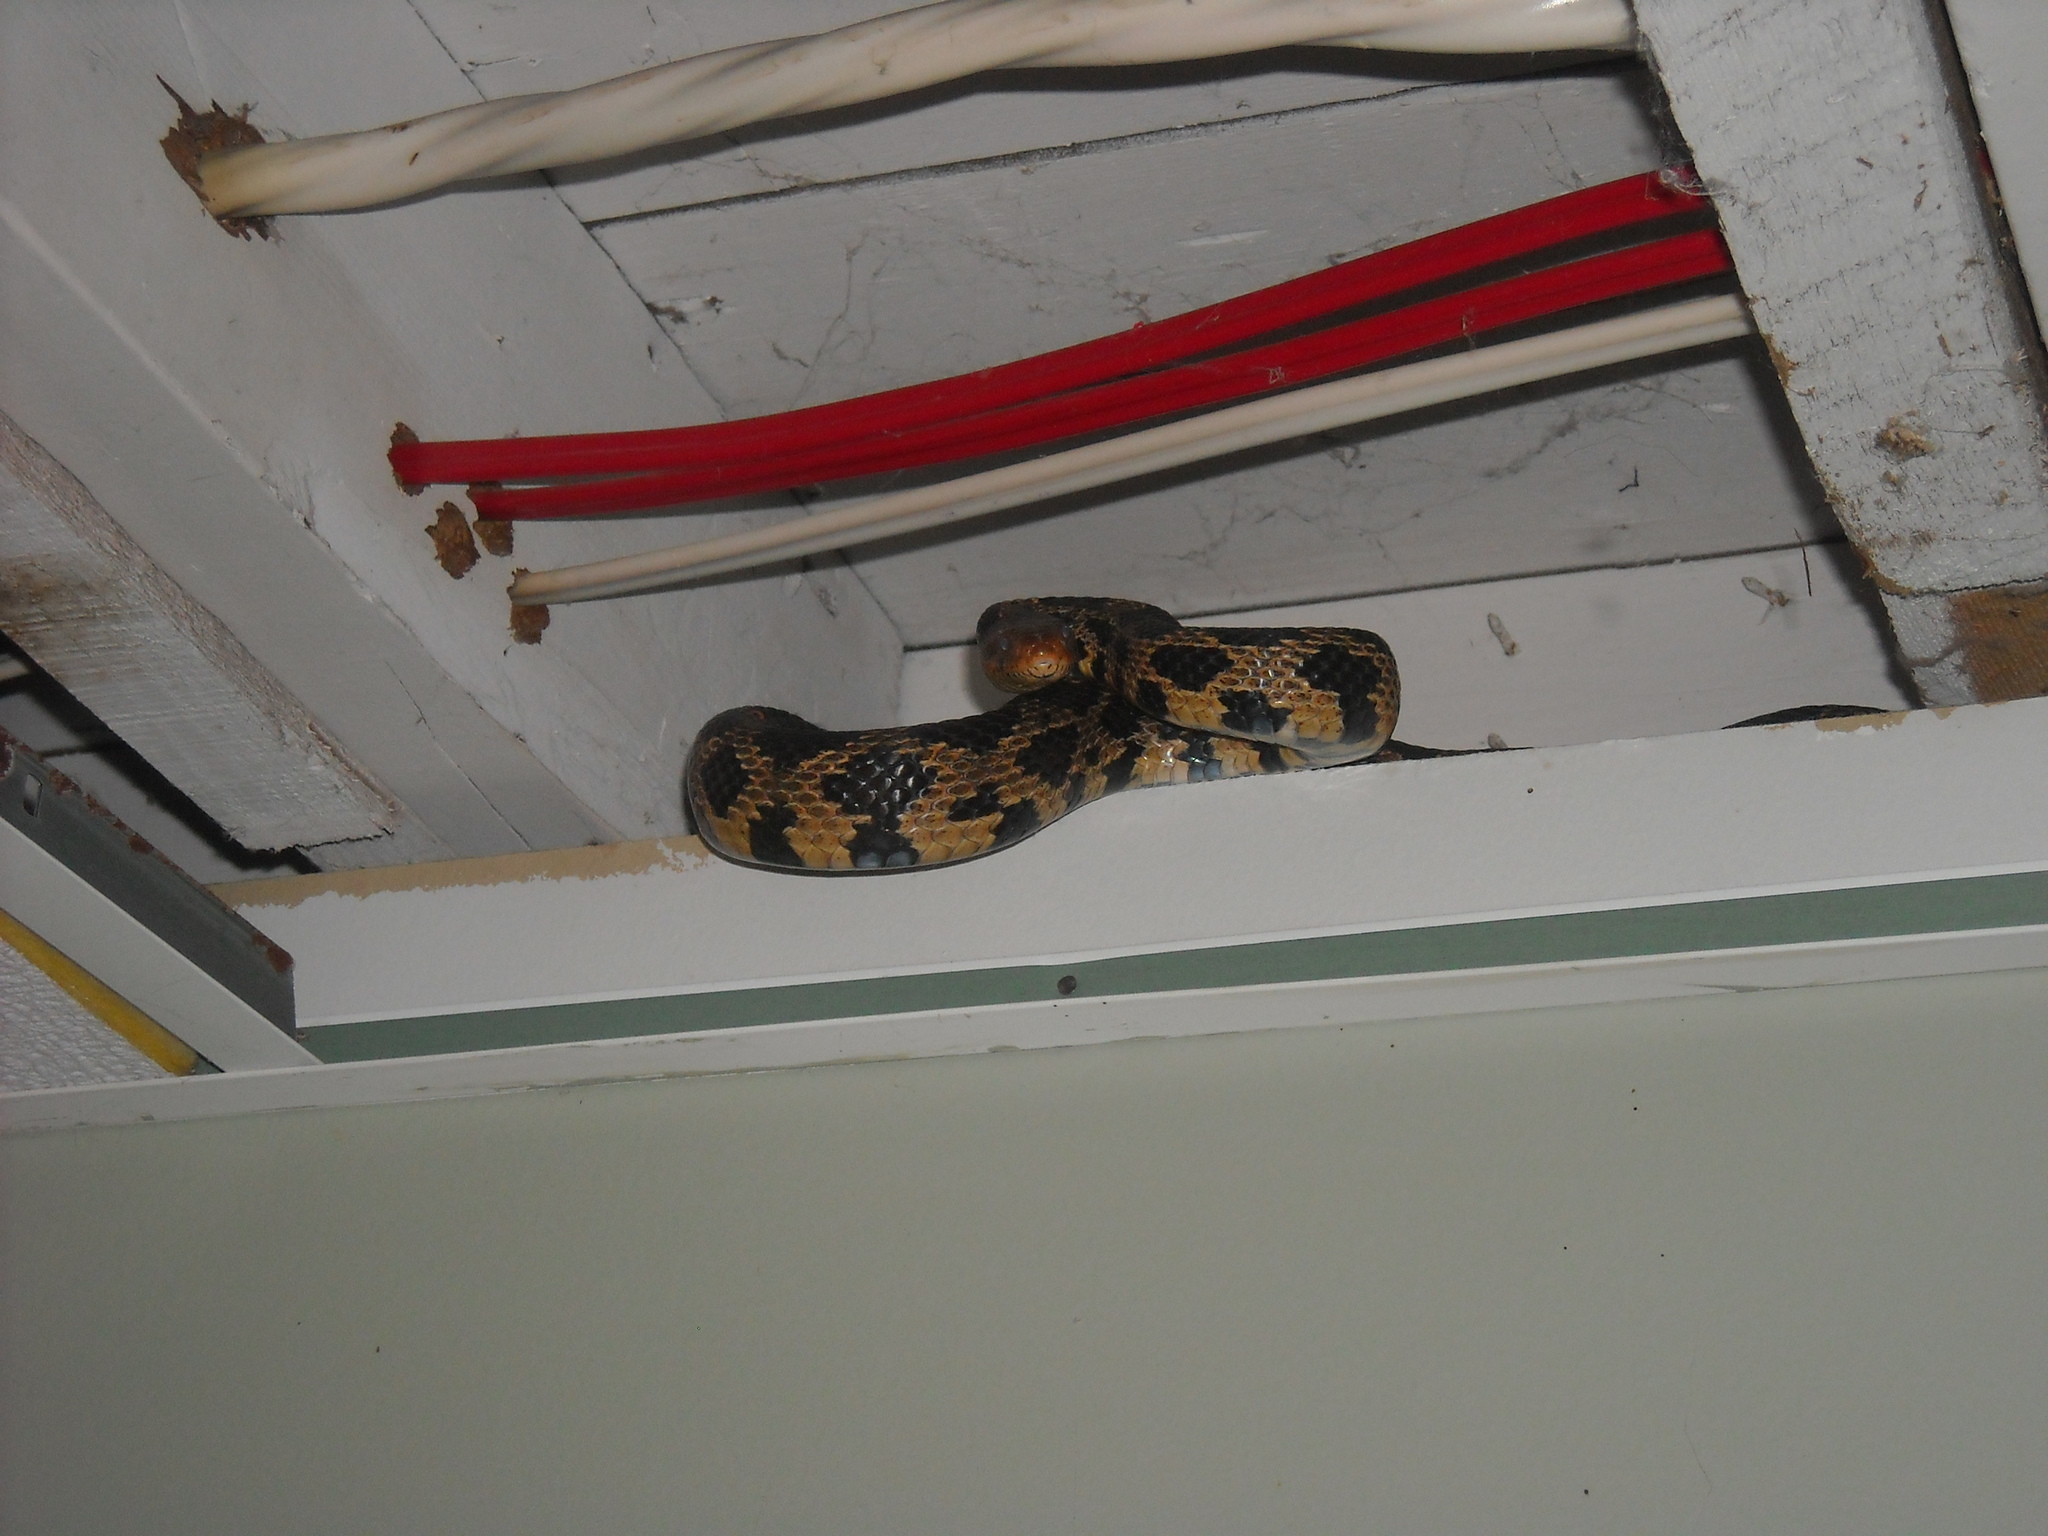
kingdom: Animalia
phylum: Chordata
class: Squamata
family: Colubridae
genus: Pantherophis
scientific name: Pantherophis vulpinus
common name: Eastern fox snake
